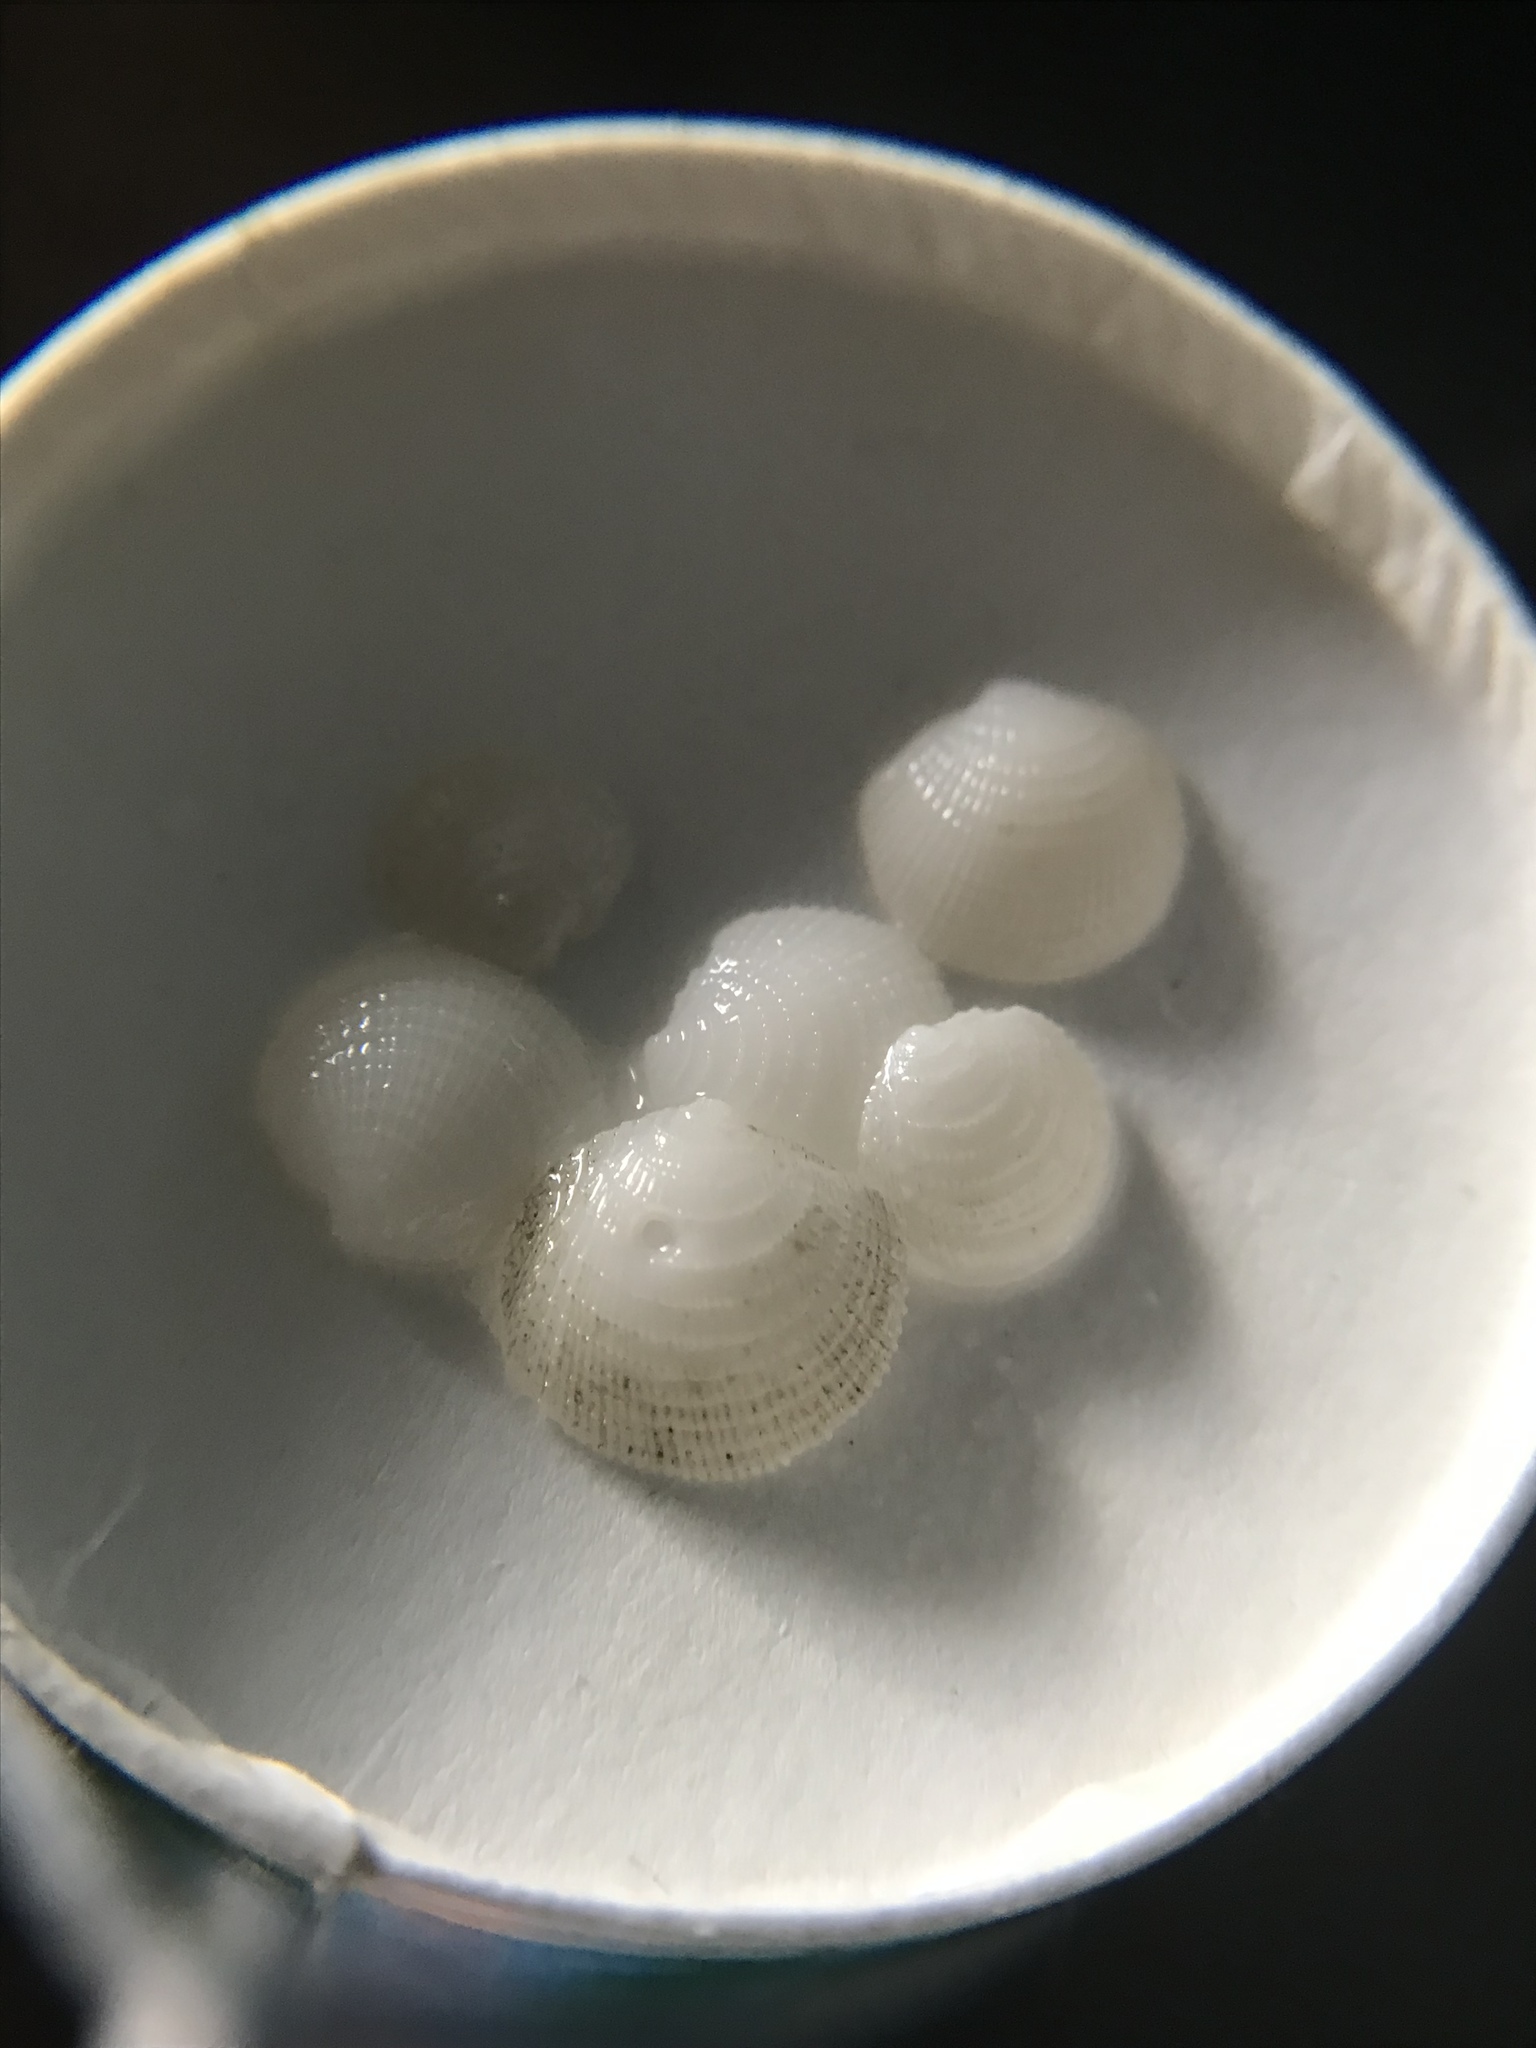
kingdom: Animalia
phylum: Mollusca
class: Bivalvia
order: Lucinida
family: Lucinidae
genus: Lucinisca
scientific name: Lucinisca nassula
